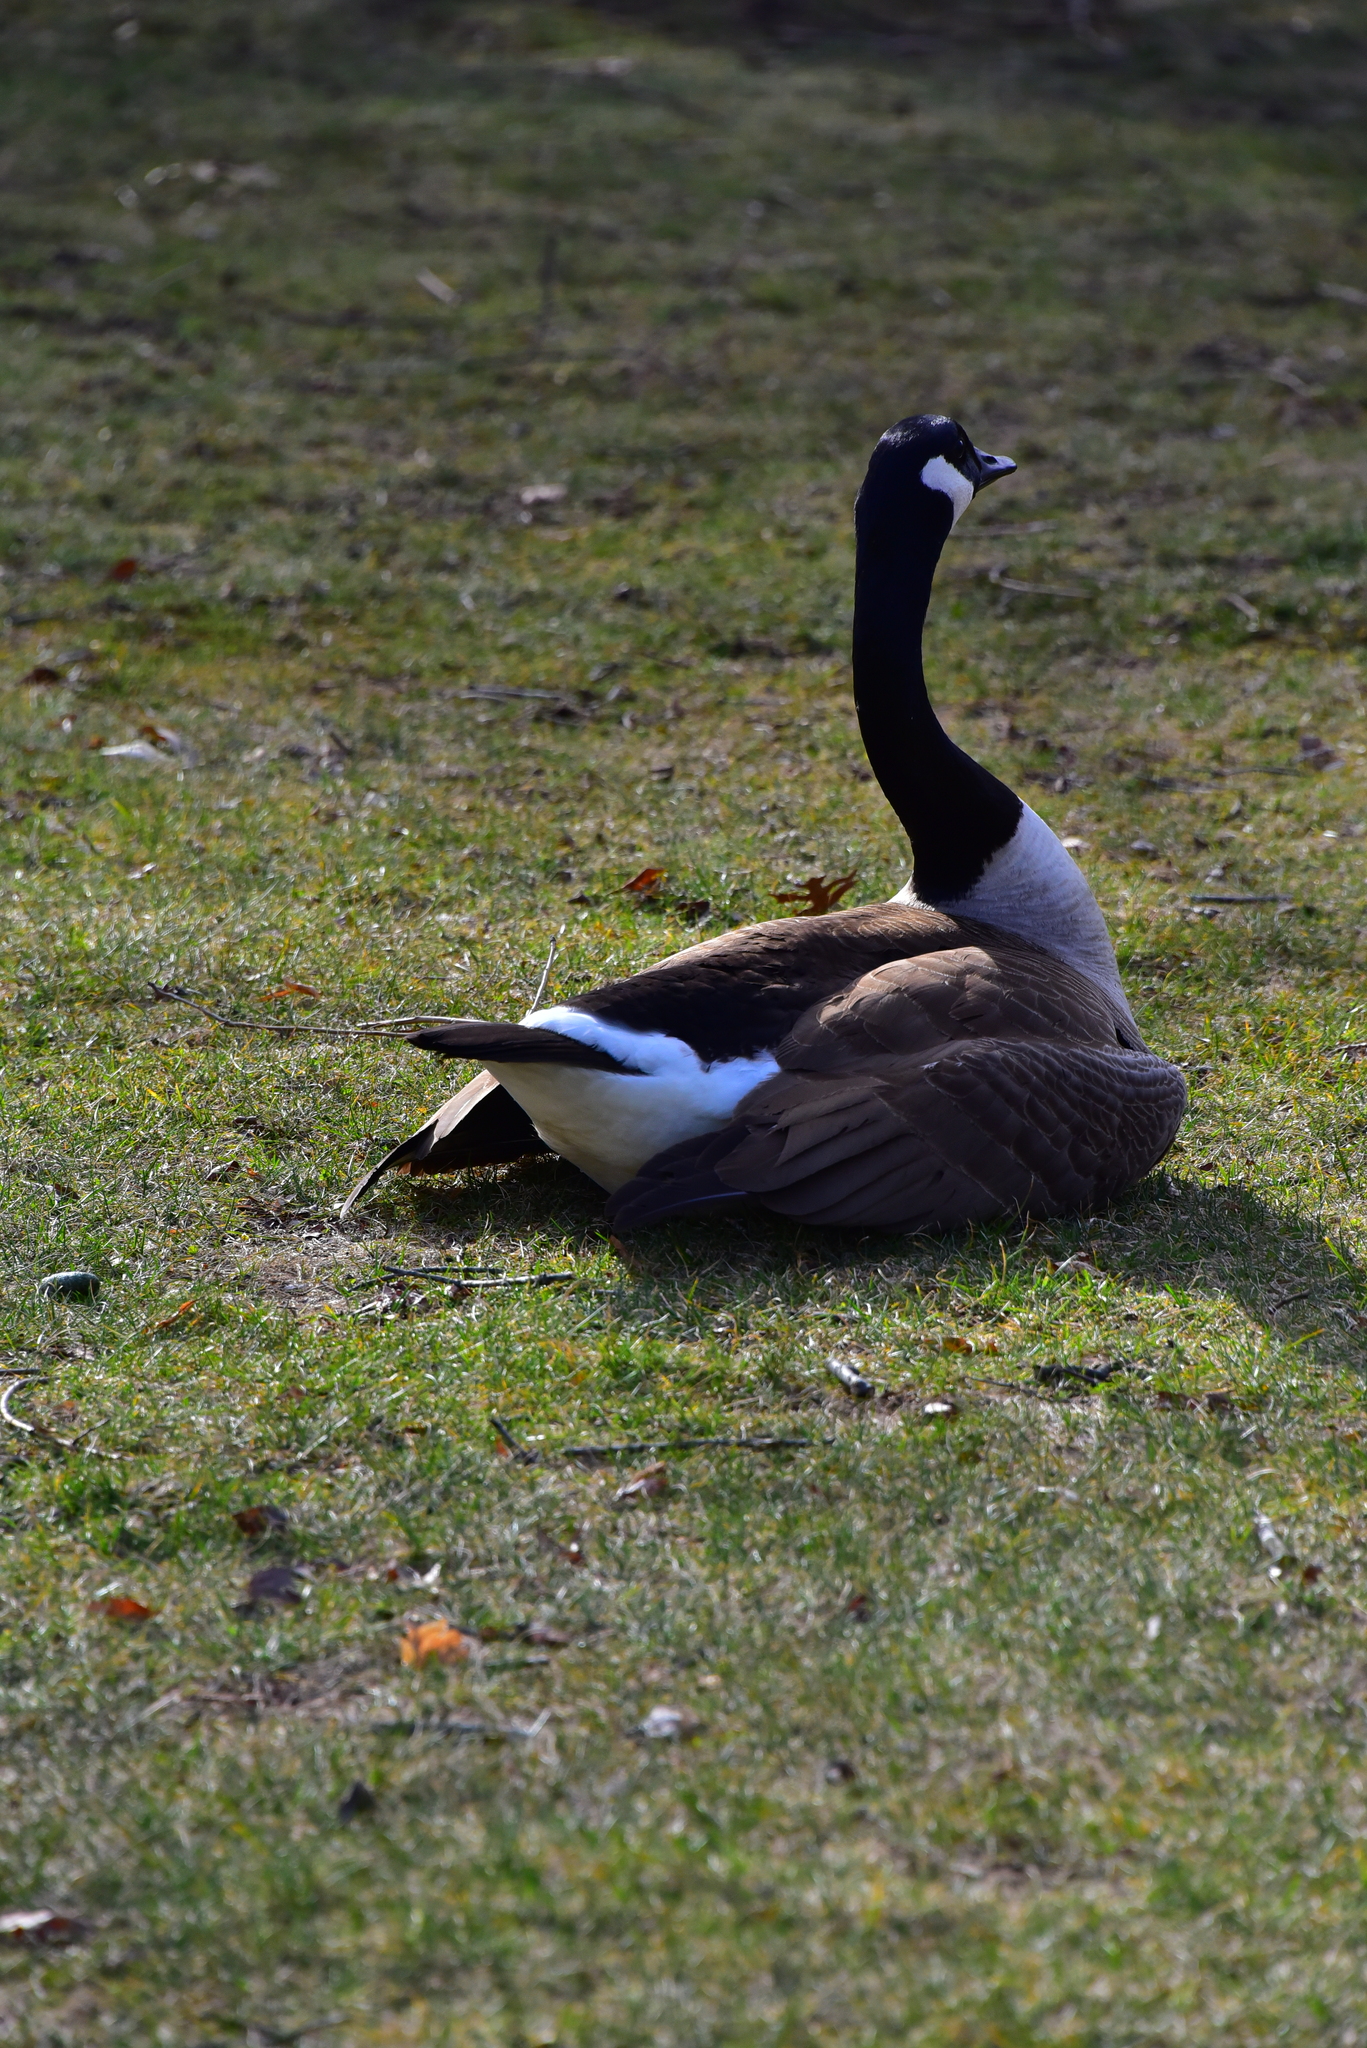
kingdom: Animalia
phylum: Chordata
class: Aves
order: Anseriformes
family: Anatidae
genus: Branta
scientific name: Branta canadensis
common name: Canada goose
